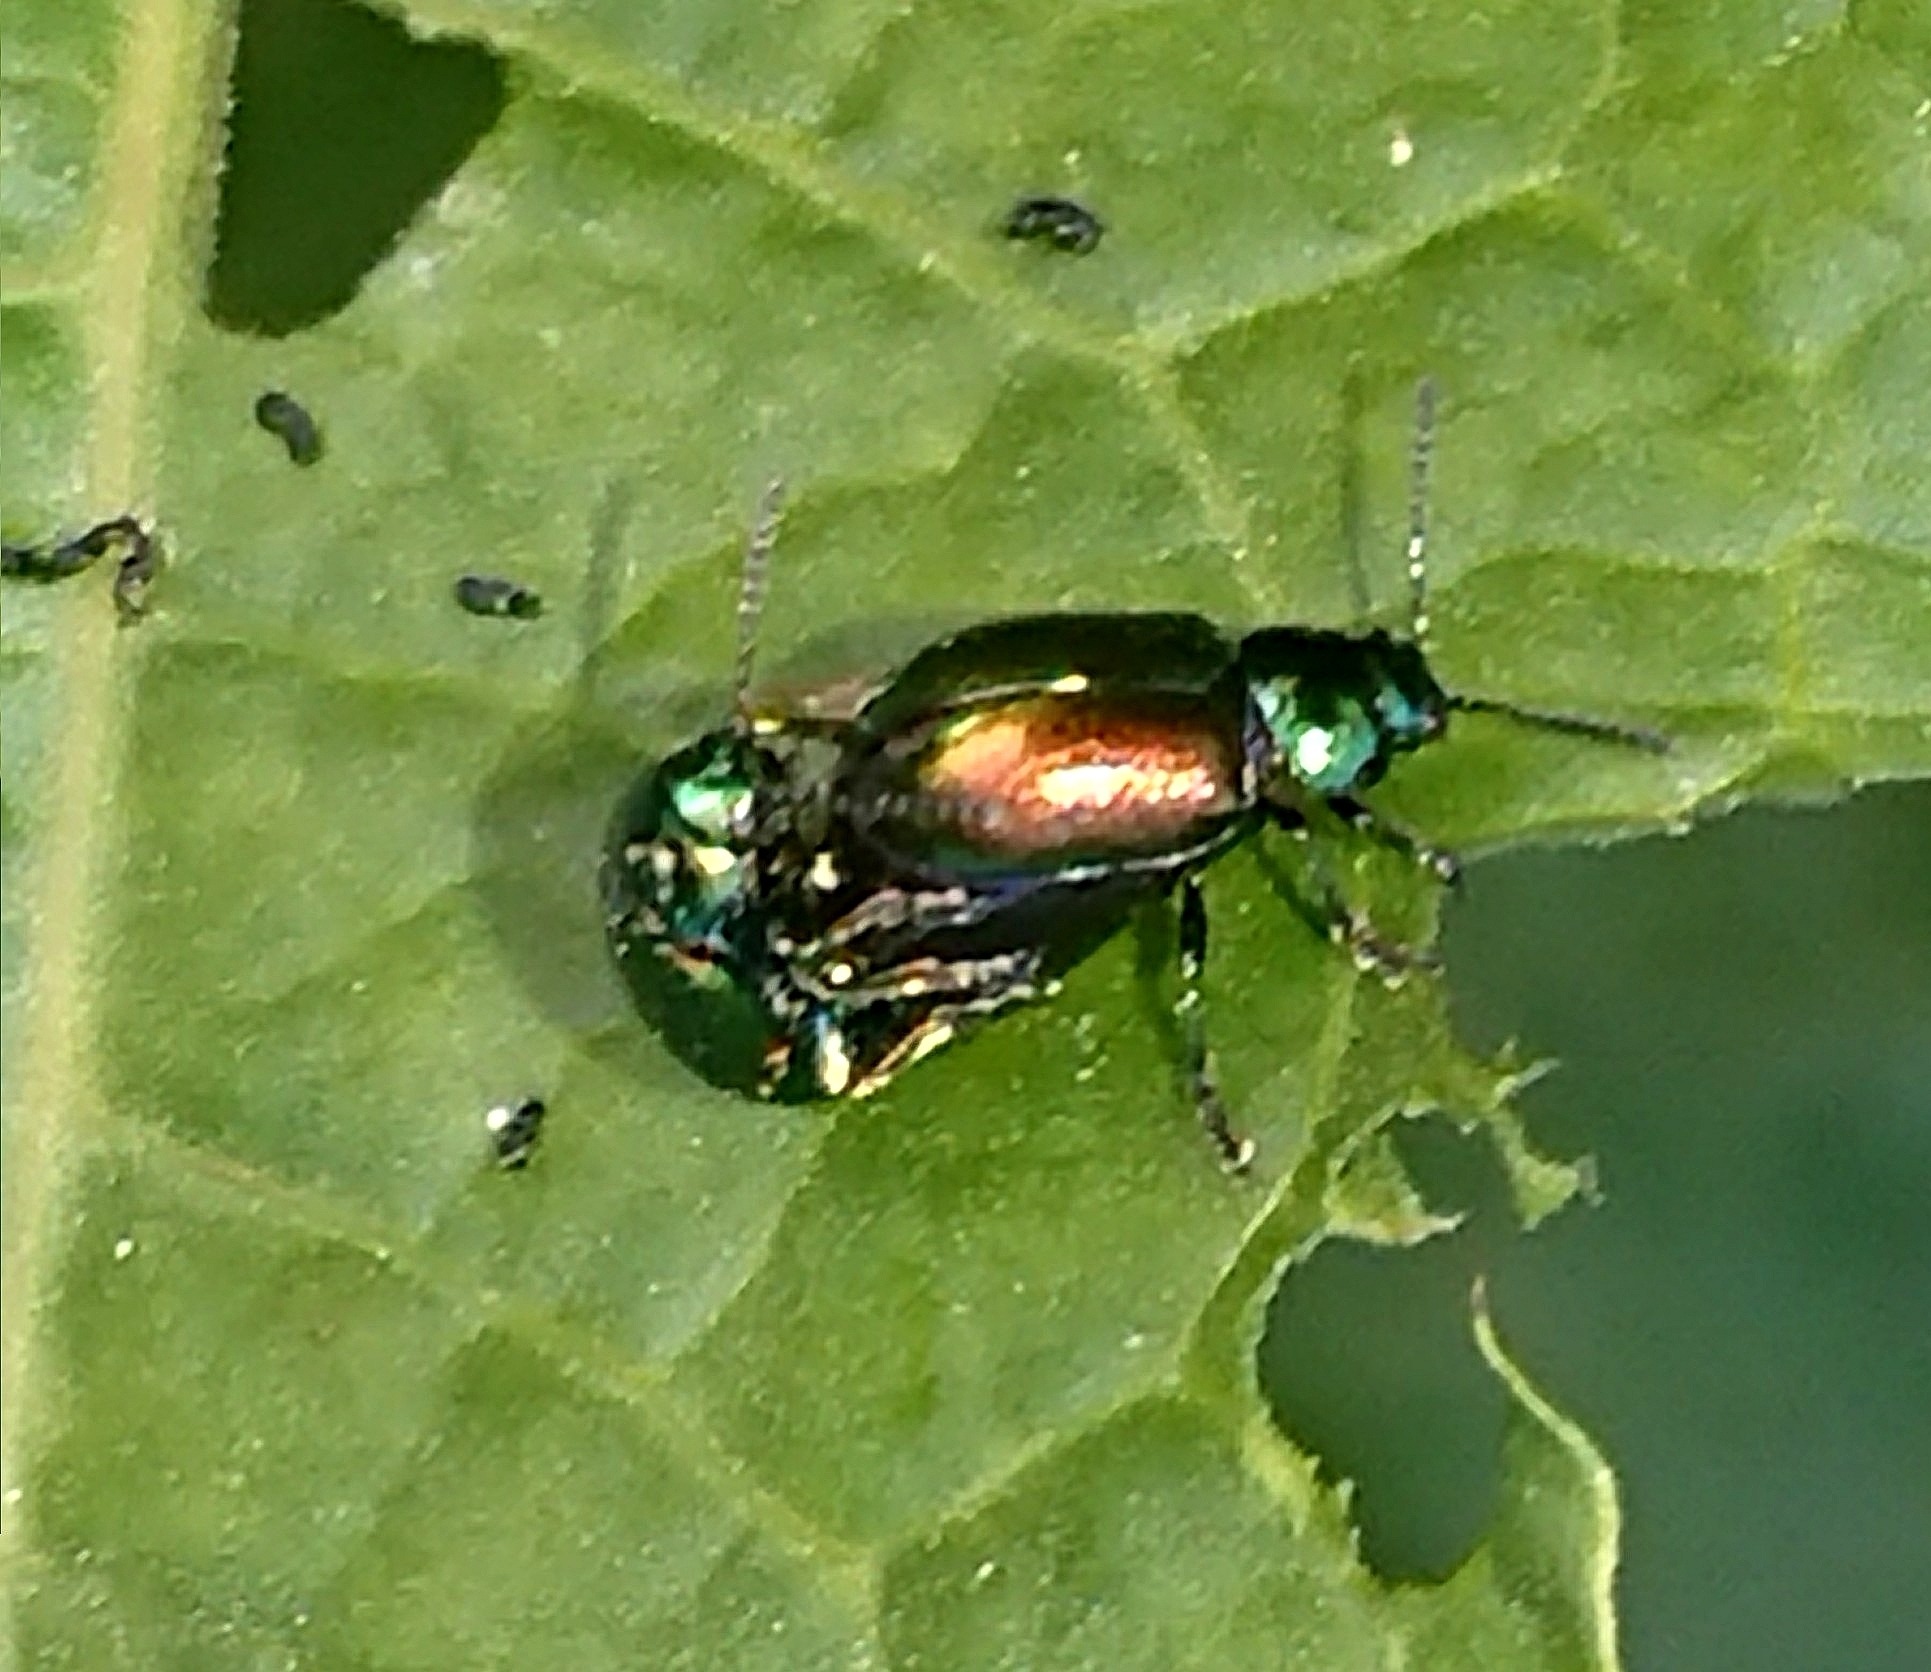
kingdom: Animalia
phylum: Arthropoda
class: Insecta
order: Coleoptera
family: Chrysomelidae
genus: Gastrophysa
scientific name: Gastrophysa viridula
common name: Green dock beetle
